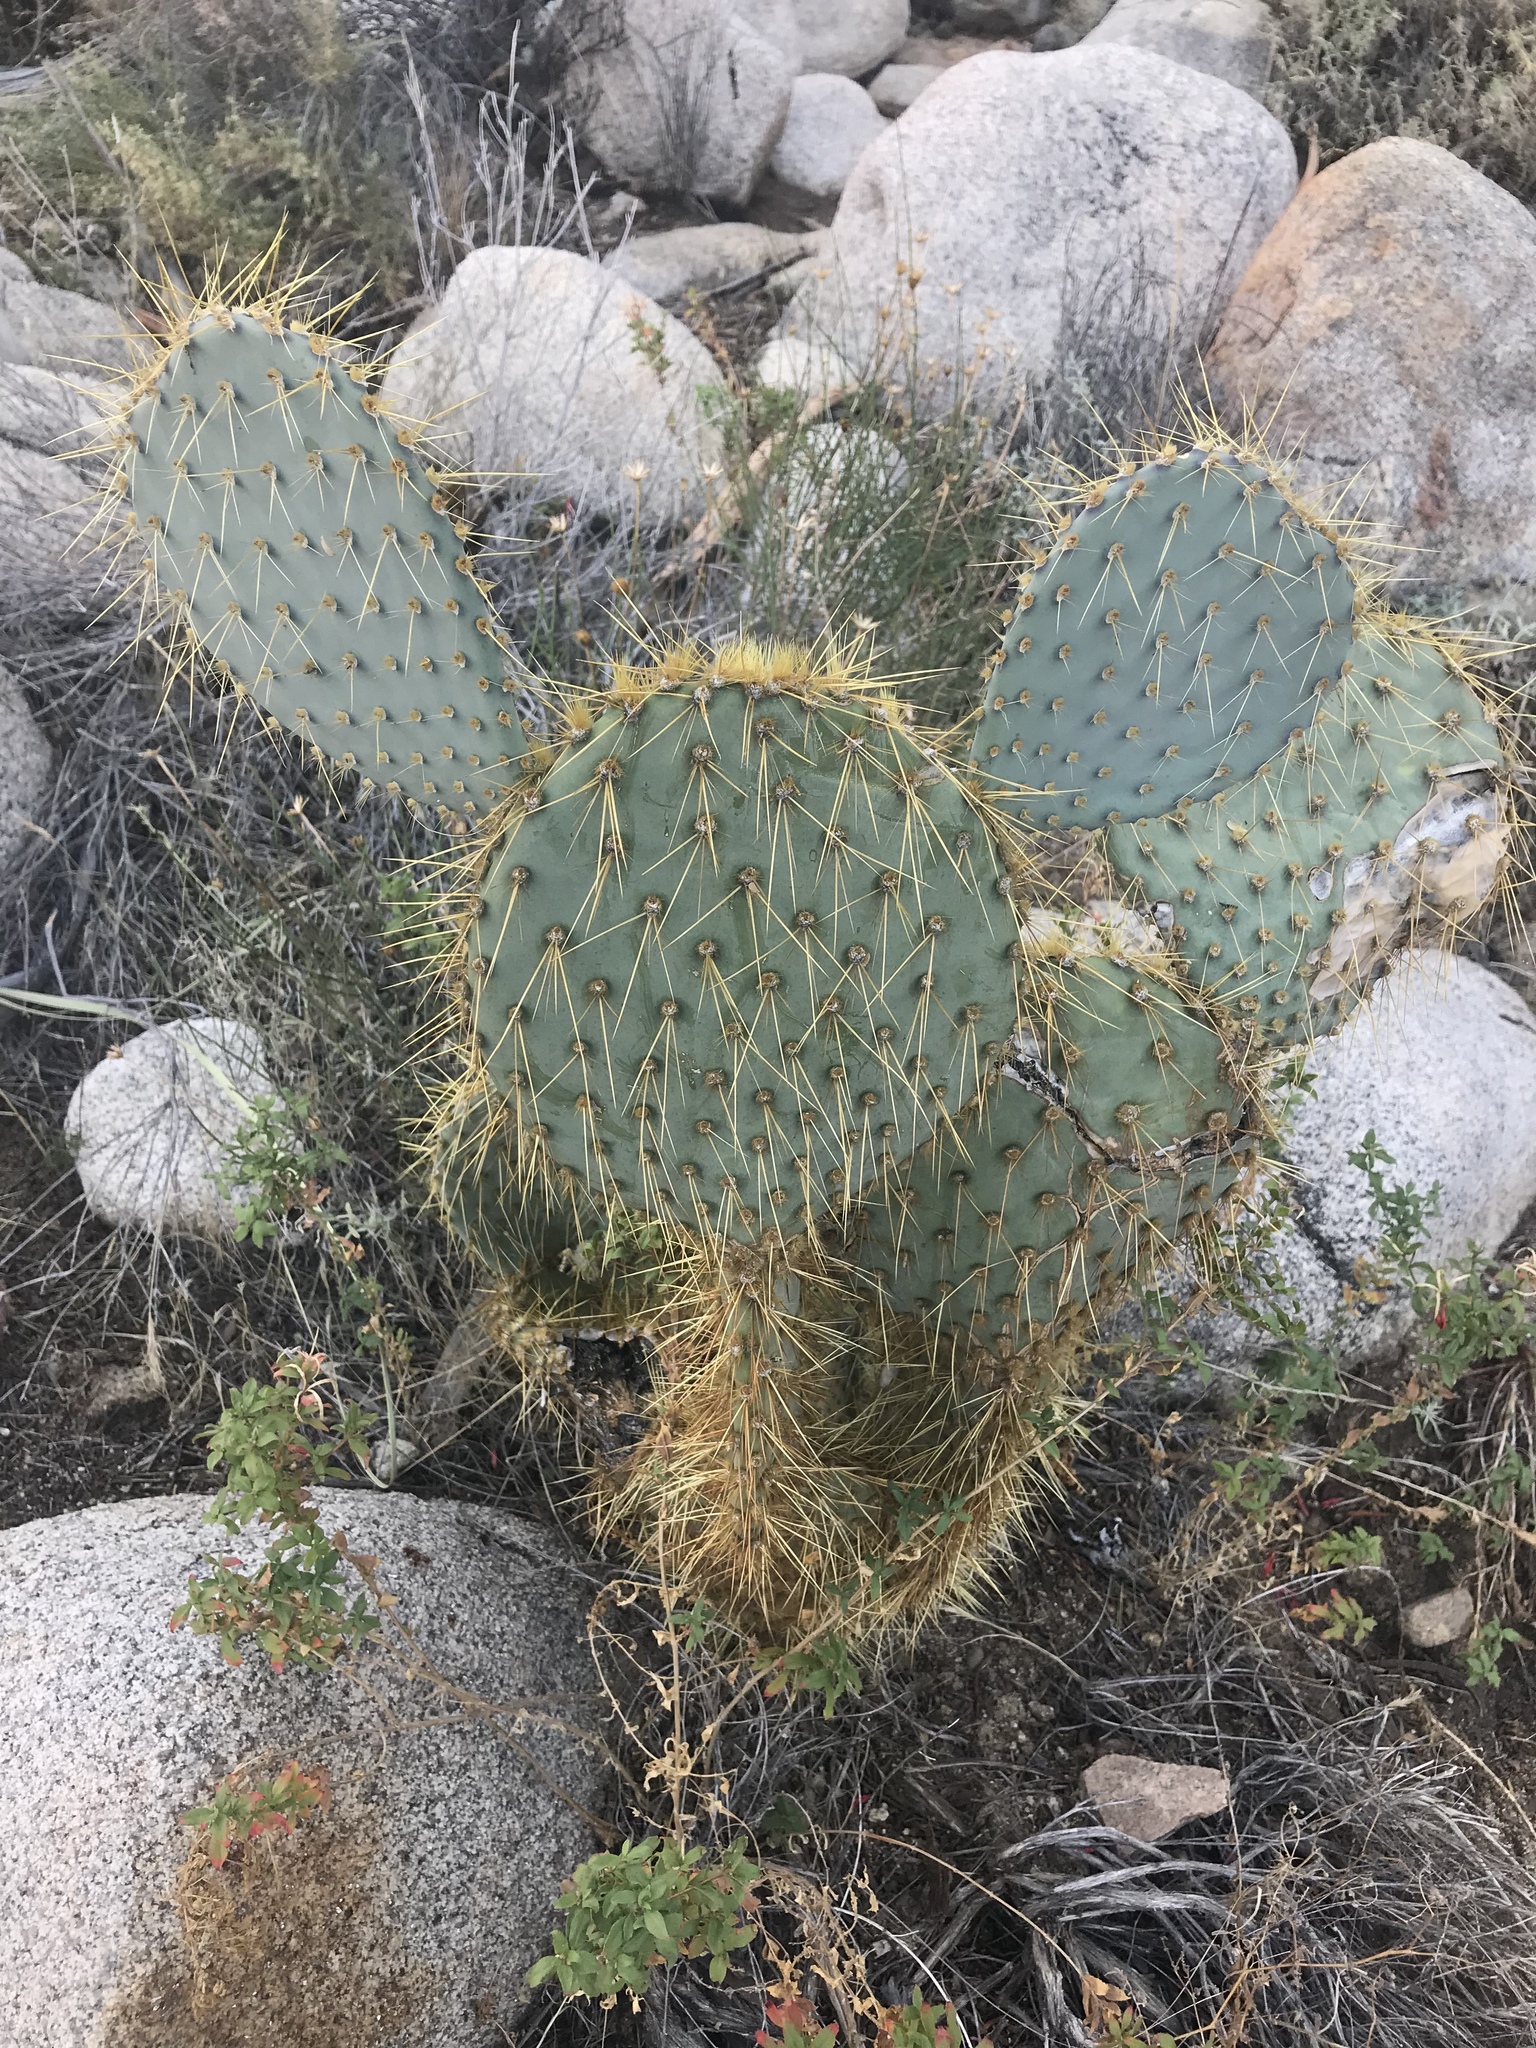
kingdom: Plantae
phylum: Tracheophyta
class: Magnoliopsida
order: Caryophyllales
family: Cactaceae
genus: Opuntia
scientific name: Opuntia chlorotica
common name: Dollar-joint prickly-pear
